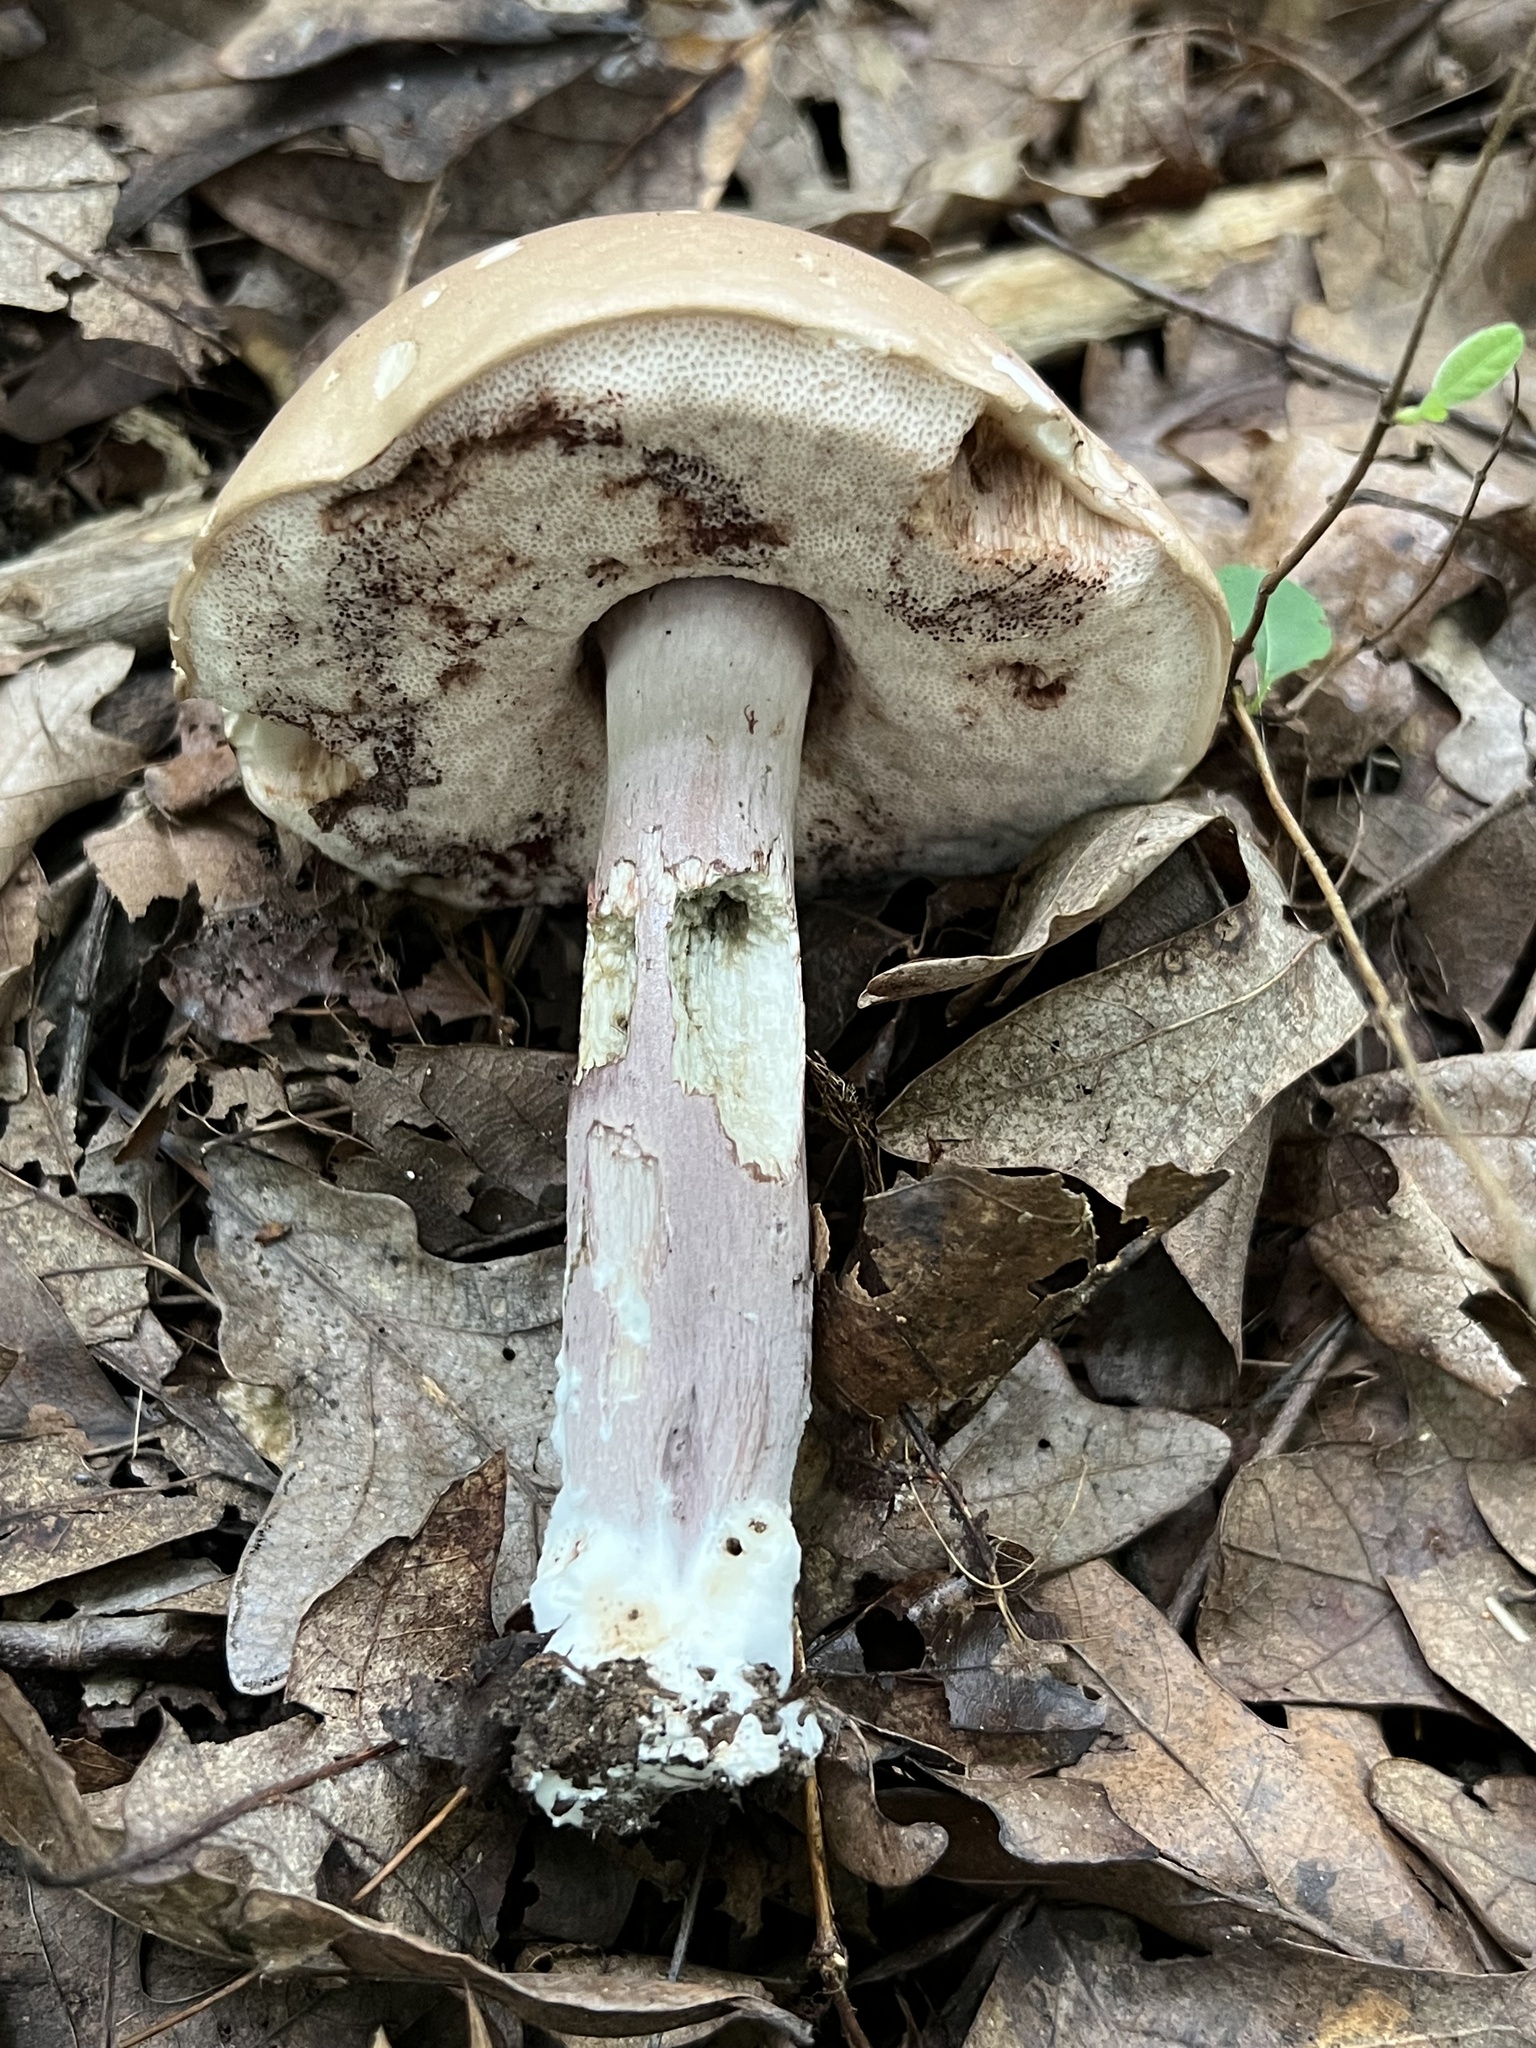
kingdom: Fungi
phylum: Basidiomycota
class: Agaricomycetes
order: Boletales
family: Boletaceae
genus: Tylopilus
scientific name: Tylopilus plumbeoviolaceus
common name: Violet gray bolete
